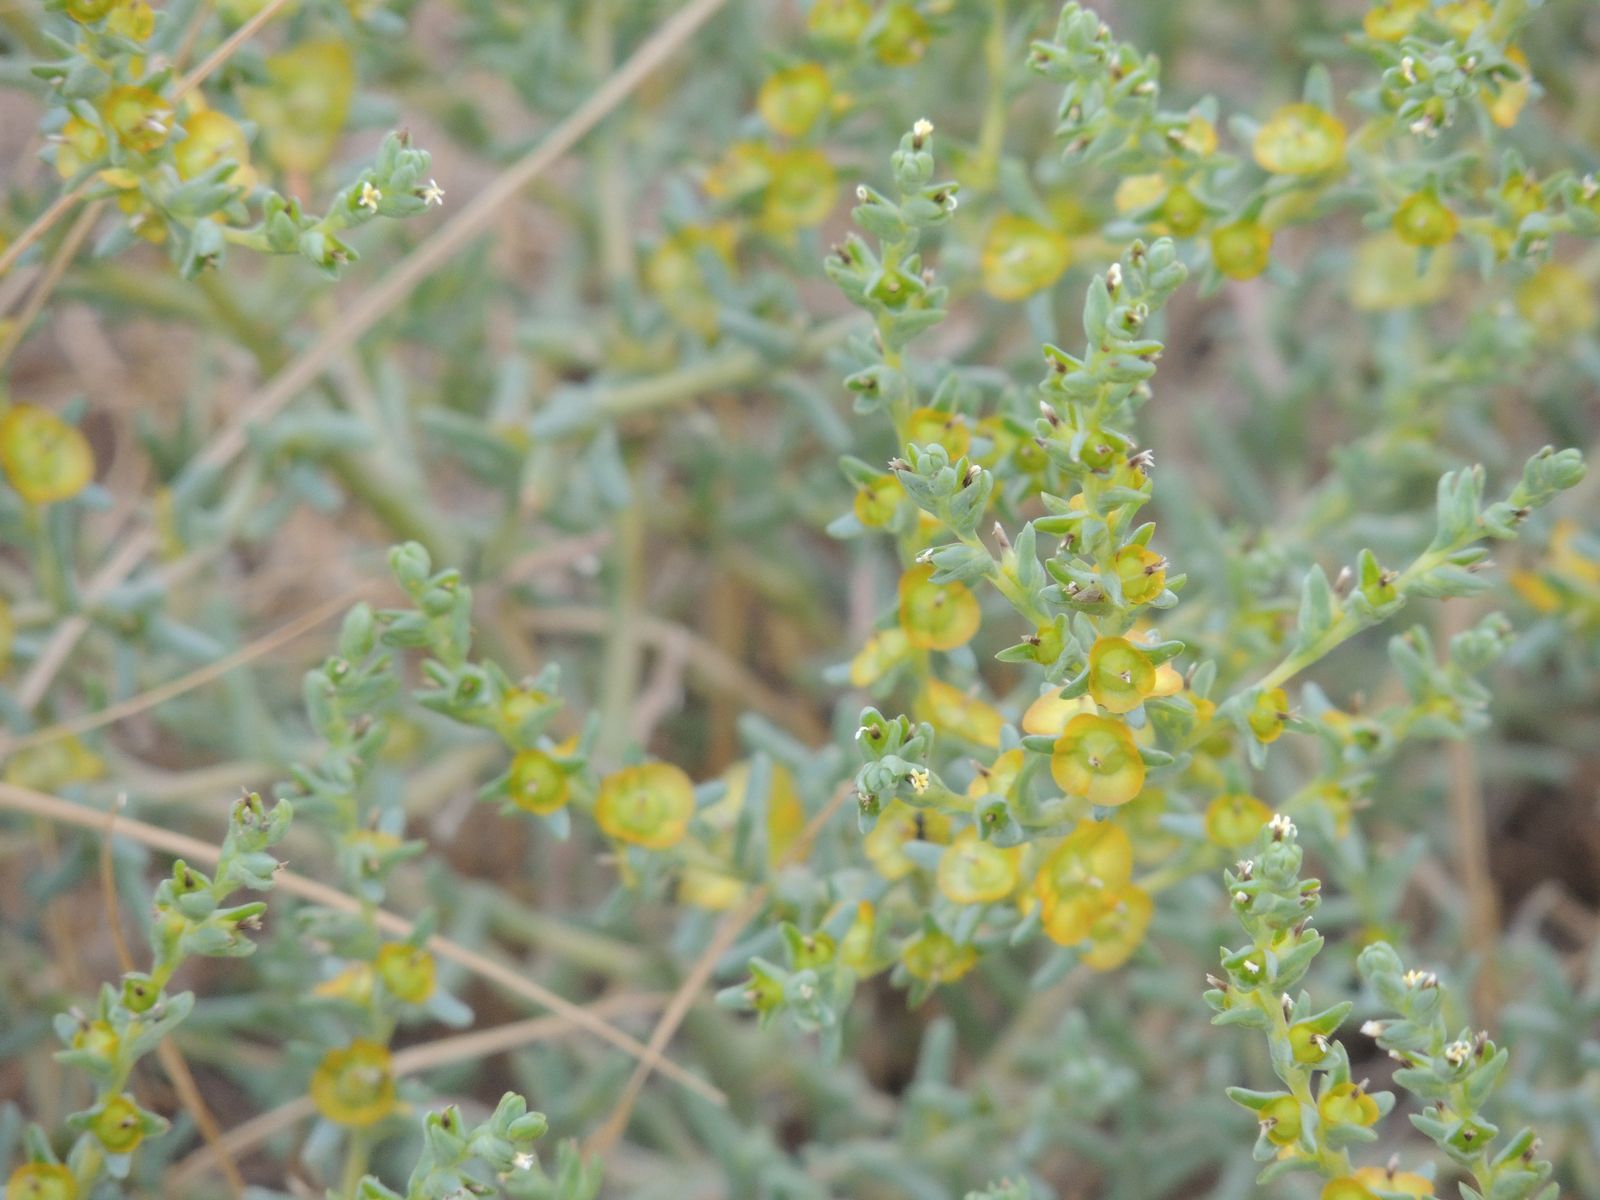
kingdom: Plantae
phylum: Tracheophyta
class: Magnoliopsida
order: Caryophyllales
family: Amaranthaceae
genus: Climacoptera
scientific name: Climacoptera crassa
